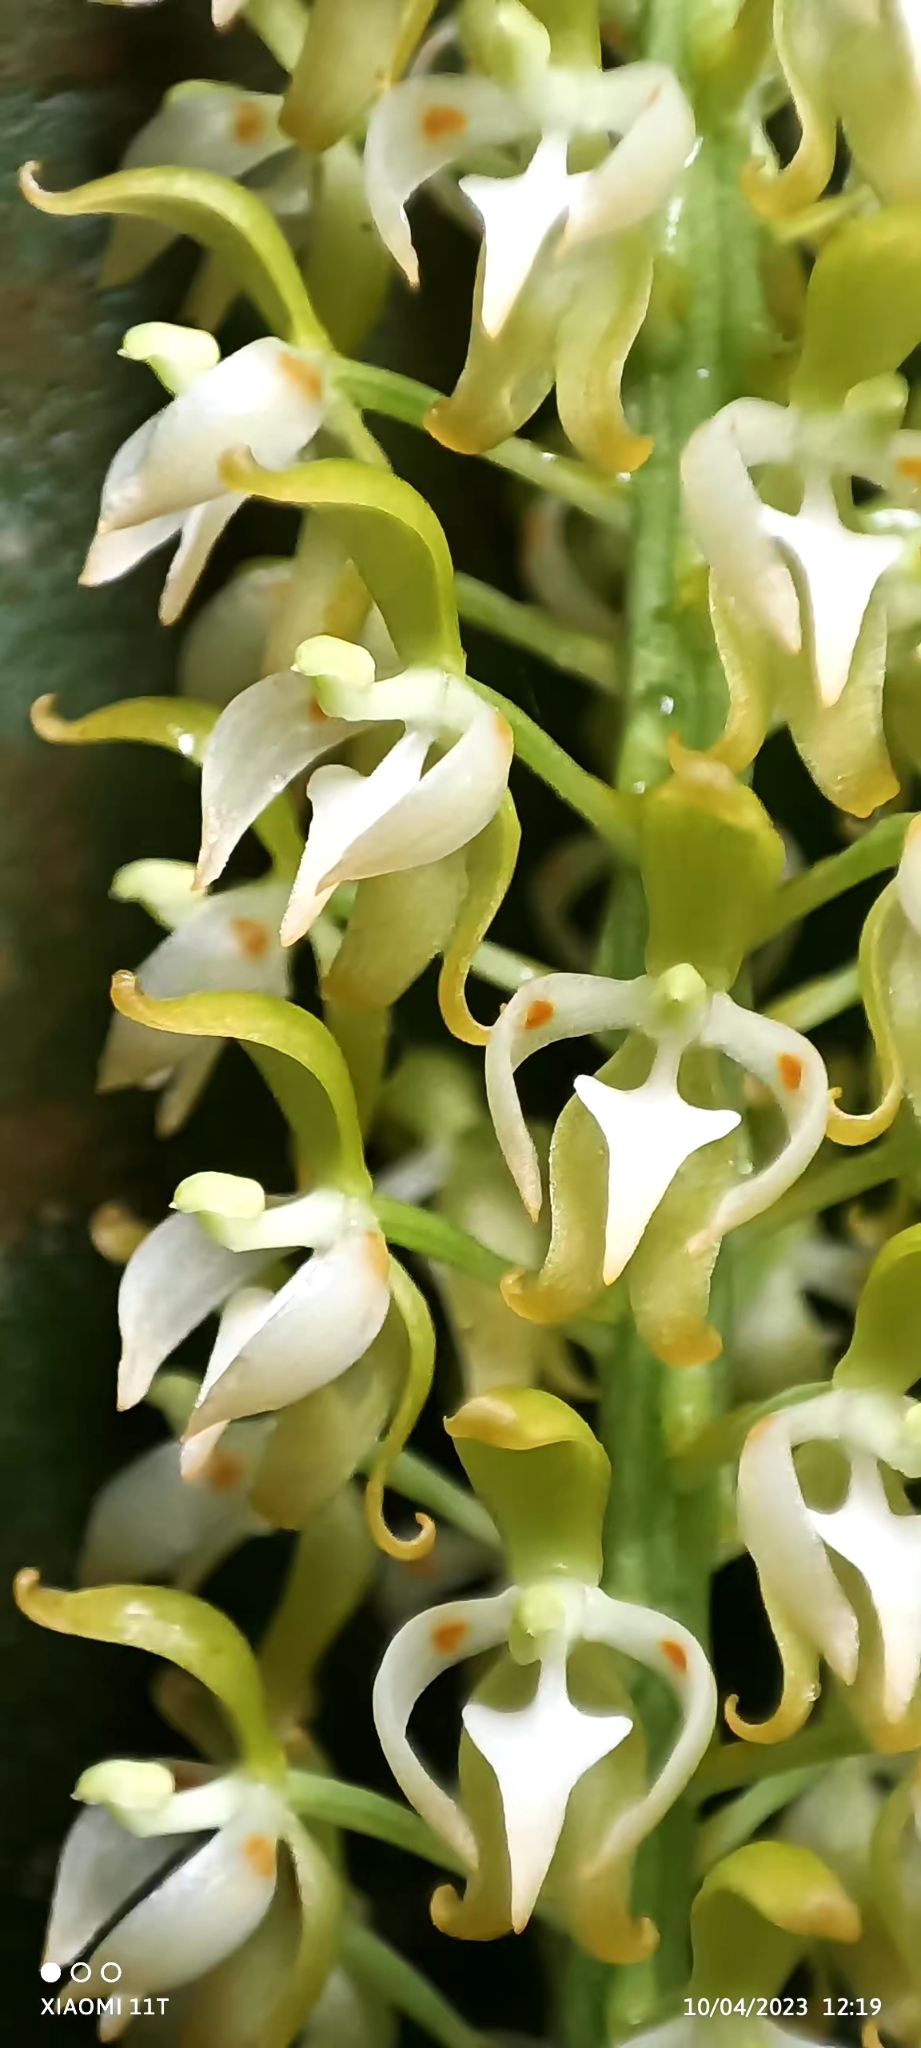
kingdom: Plantae
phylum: Tracheophyta
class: Liliopsida
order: Asparagales
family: Orchidaceae
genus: Notylia
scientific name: Notylia barkeri
